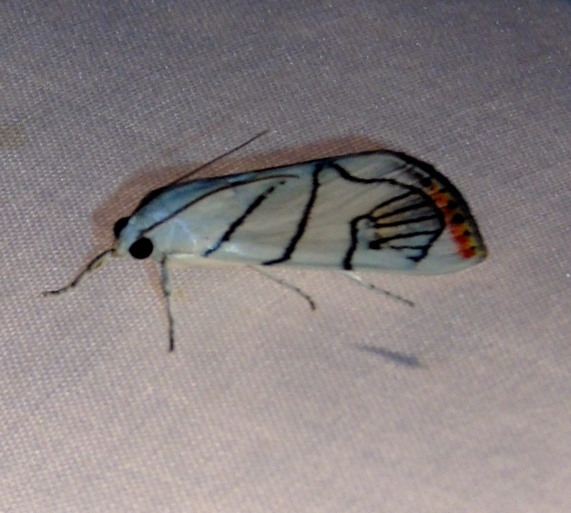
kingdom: Animalia
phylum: Arthropoda
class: Insecta
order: Lepidoptera
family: Crambidae
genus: Dichogama
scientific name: Dichogama gudmanni
